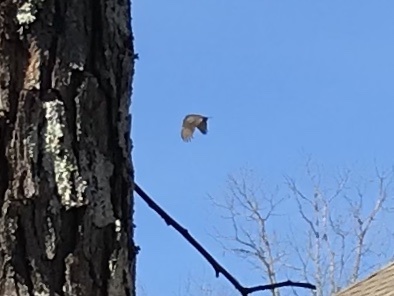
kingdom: Animalia
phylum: Chordata
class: Aves
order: Accipitriformes
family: Cathartidae
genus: Cathartes
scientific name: Cathartes aura
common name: Turkey vulture
